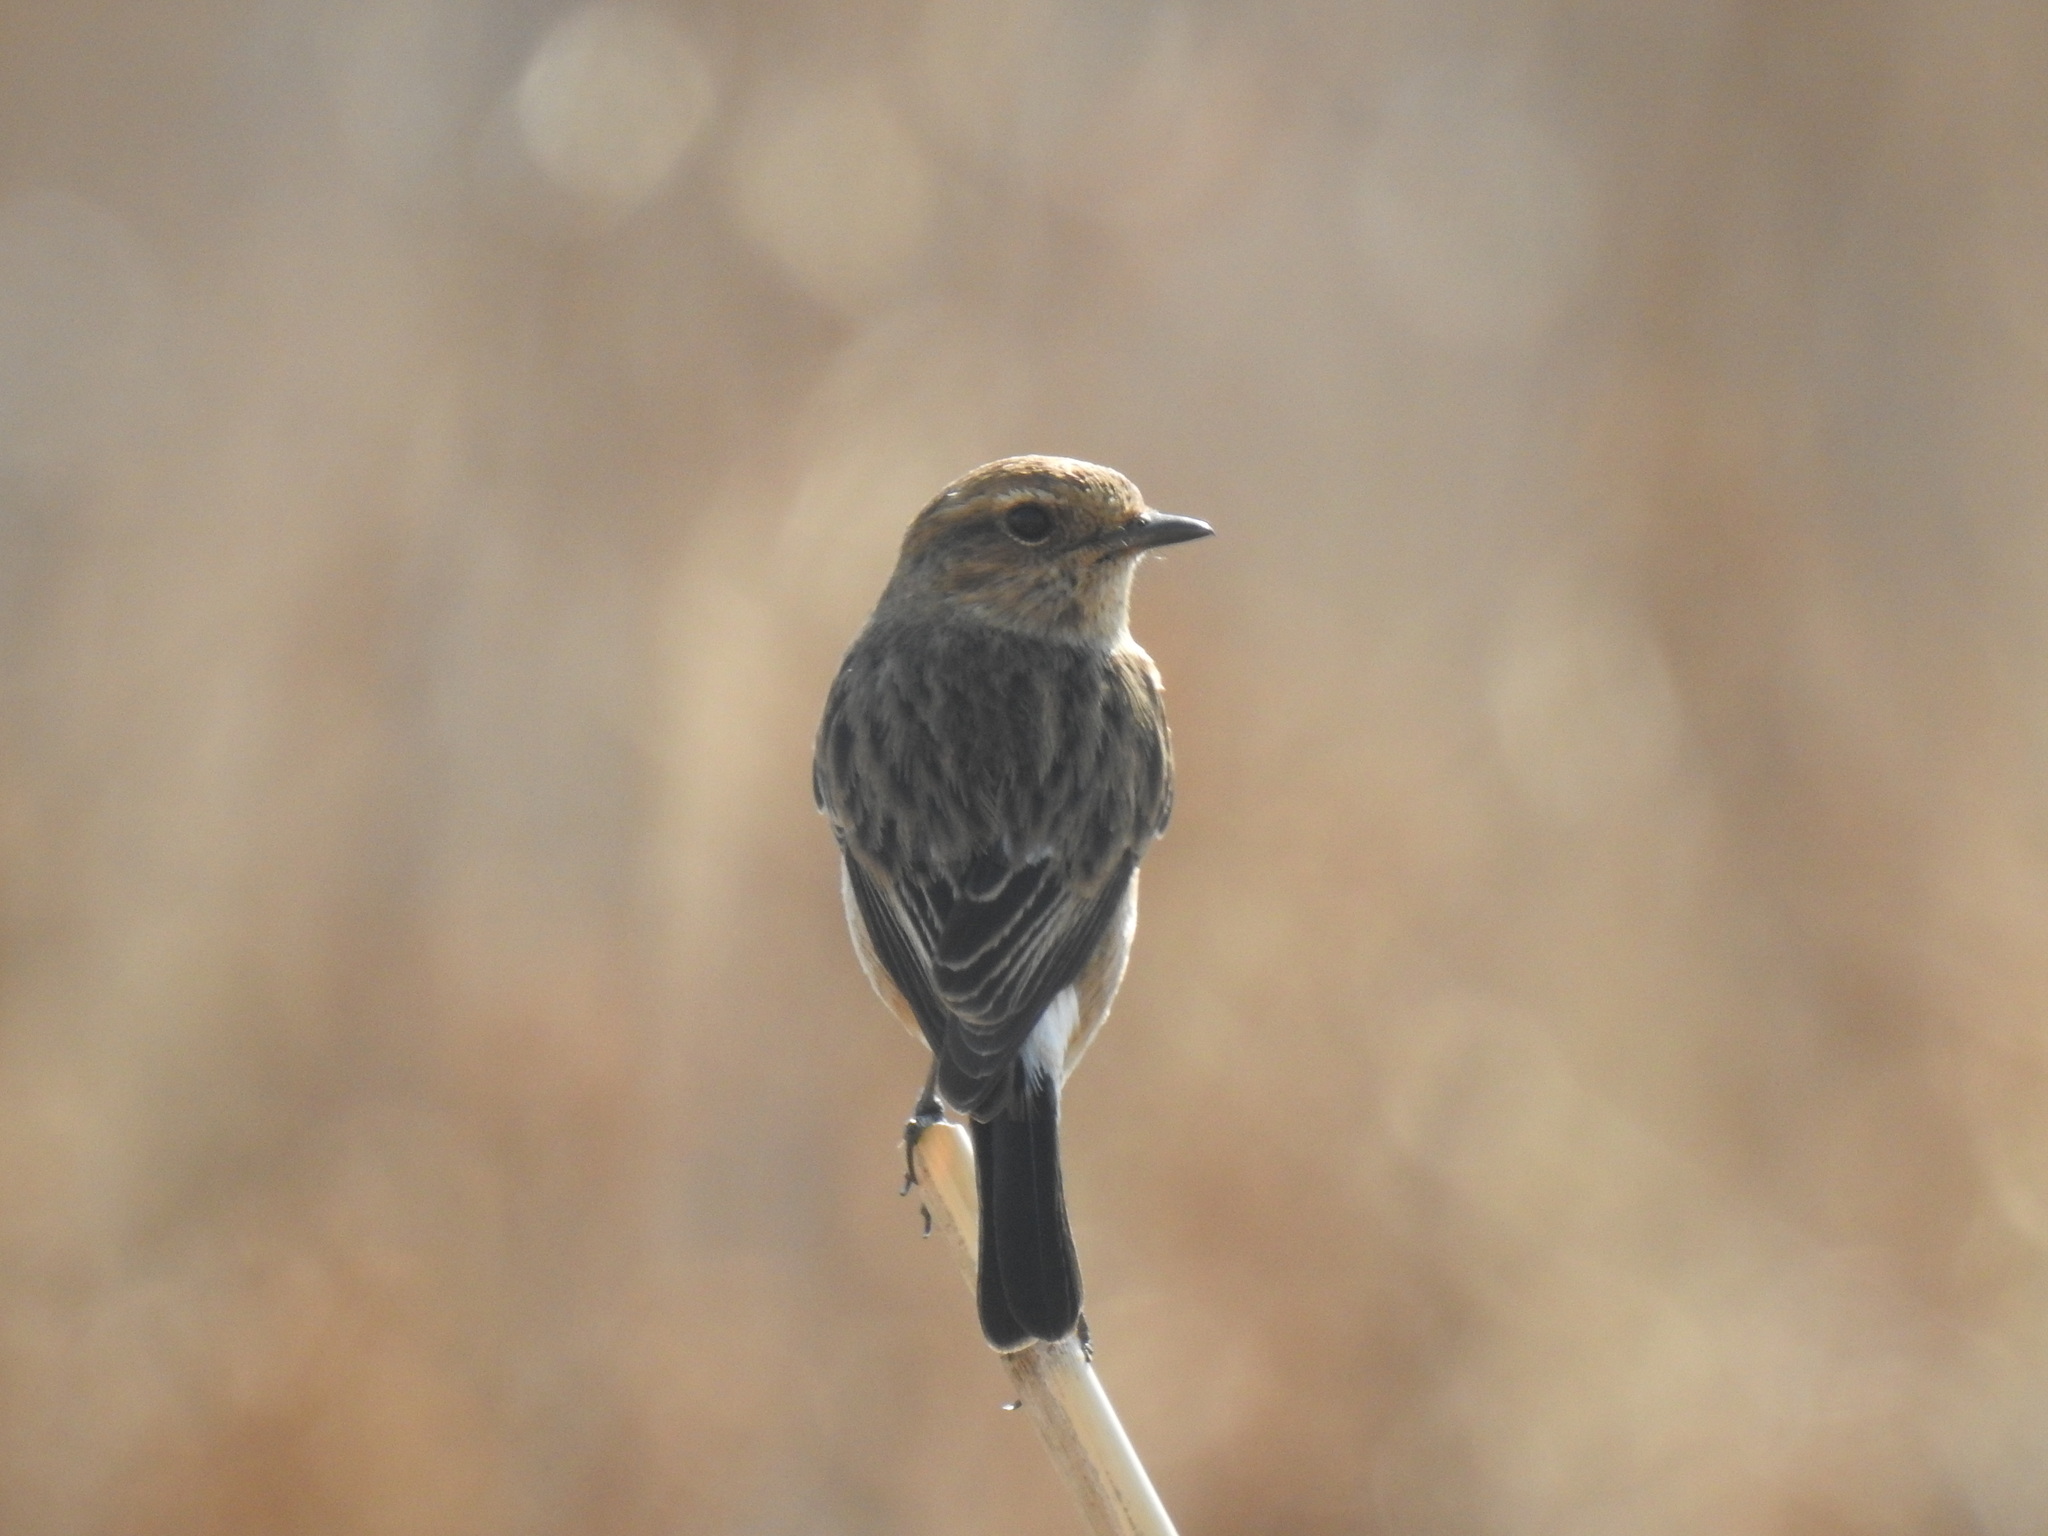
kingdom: Animalia
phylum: Chordata
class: Aves
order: Passeriformes
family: Muscicapidae
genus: Saxicola
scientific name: Saxicola torquatus
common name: African stonechat
